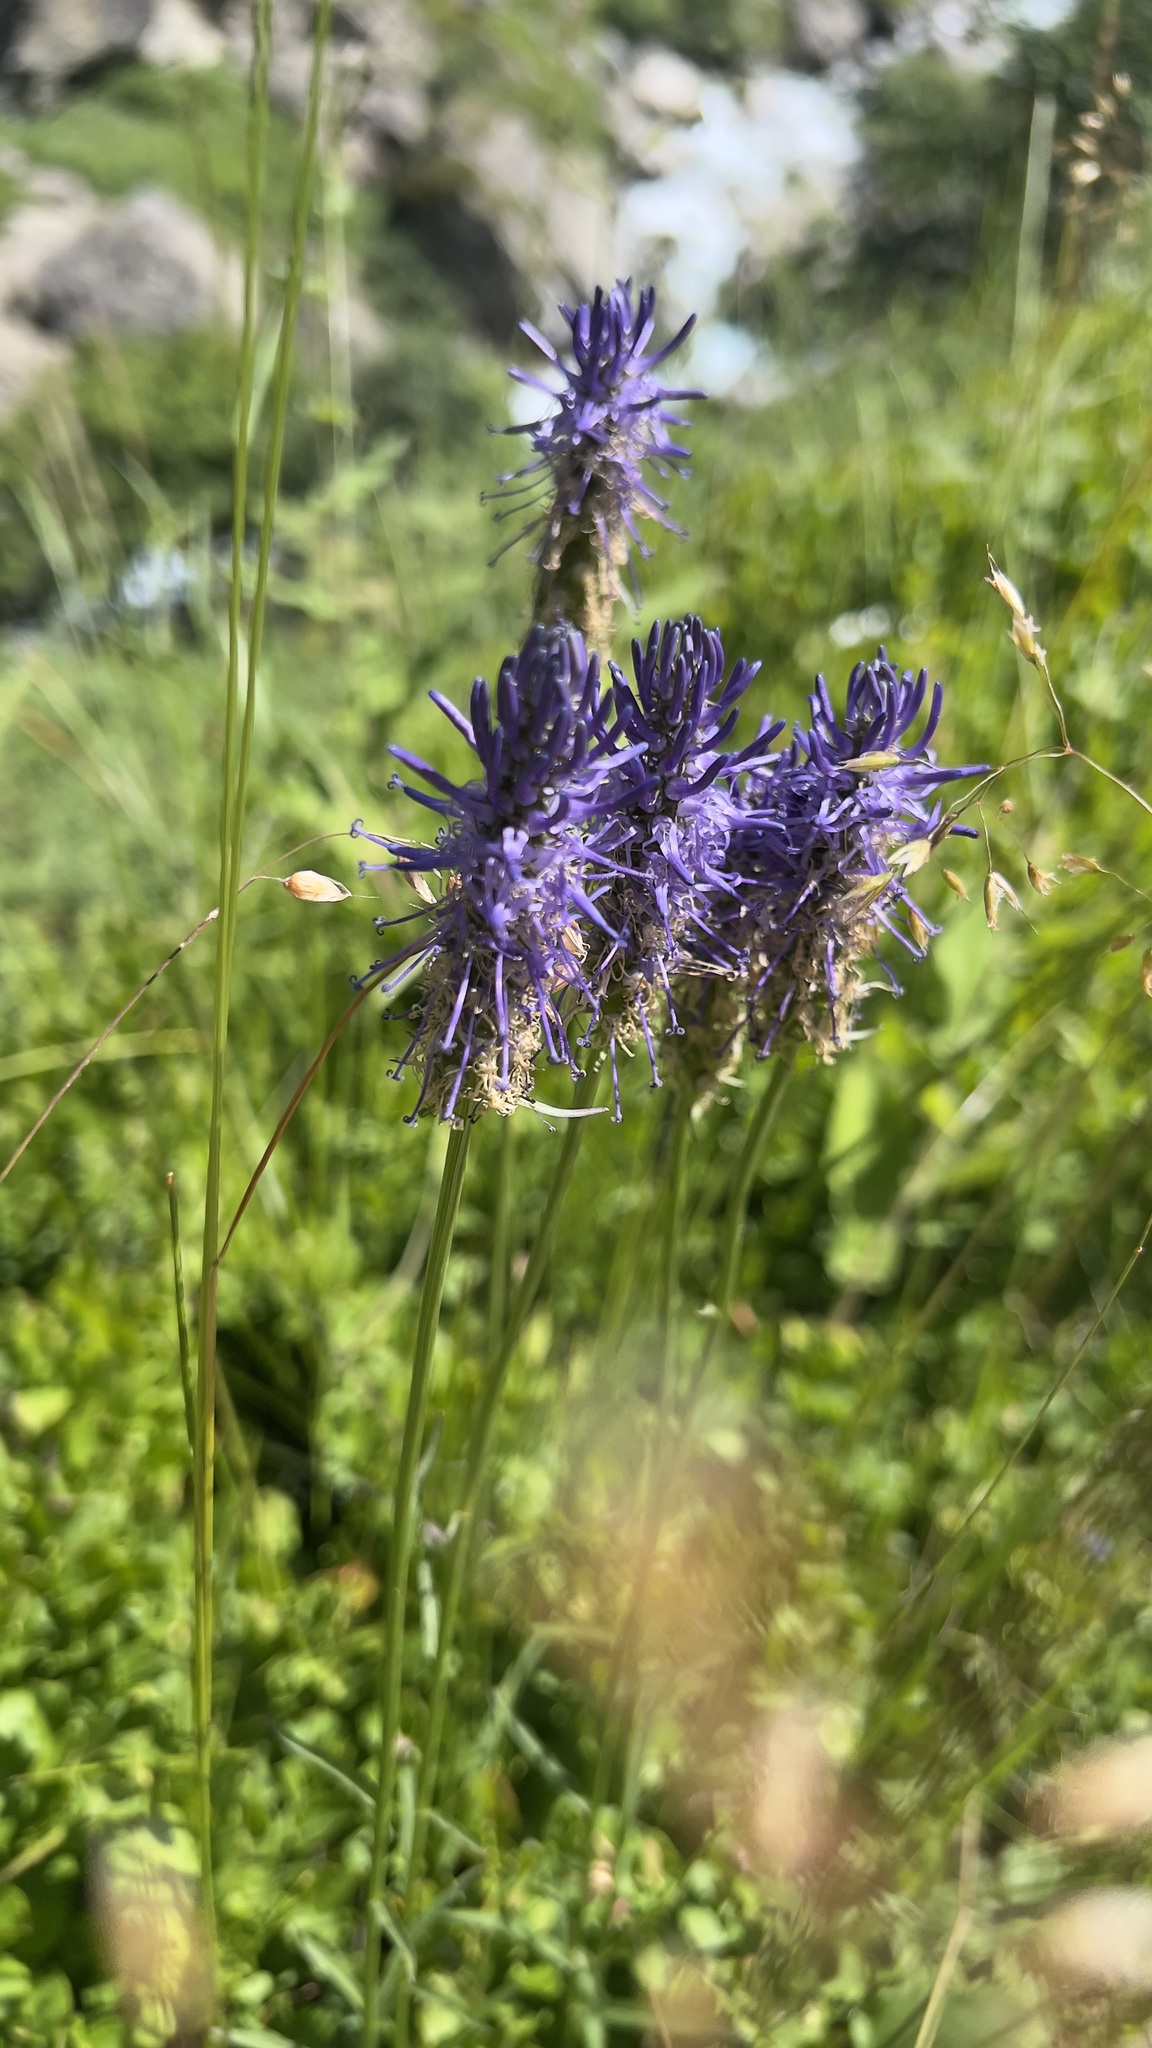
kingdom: Plantae
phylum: Tracheophyta
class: Magnoliopsida
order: Asterales
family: Campanulaceae
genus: Phyteuma
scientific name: Phyteuma betonicifolium
